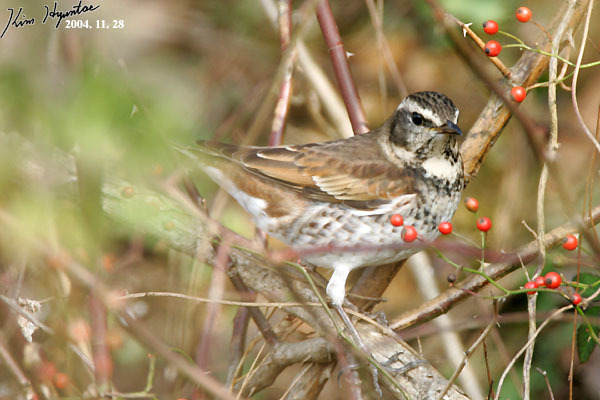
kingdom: Animalia
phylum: Chordata
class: Aves
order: Passeriformes
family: Turdidae
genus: Turdus
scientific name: Turdus eunomus
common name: Dusky thrush
